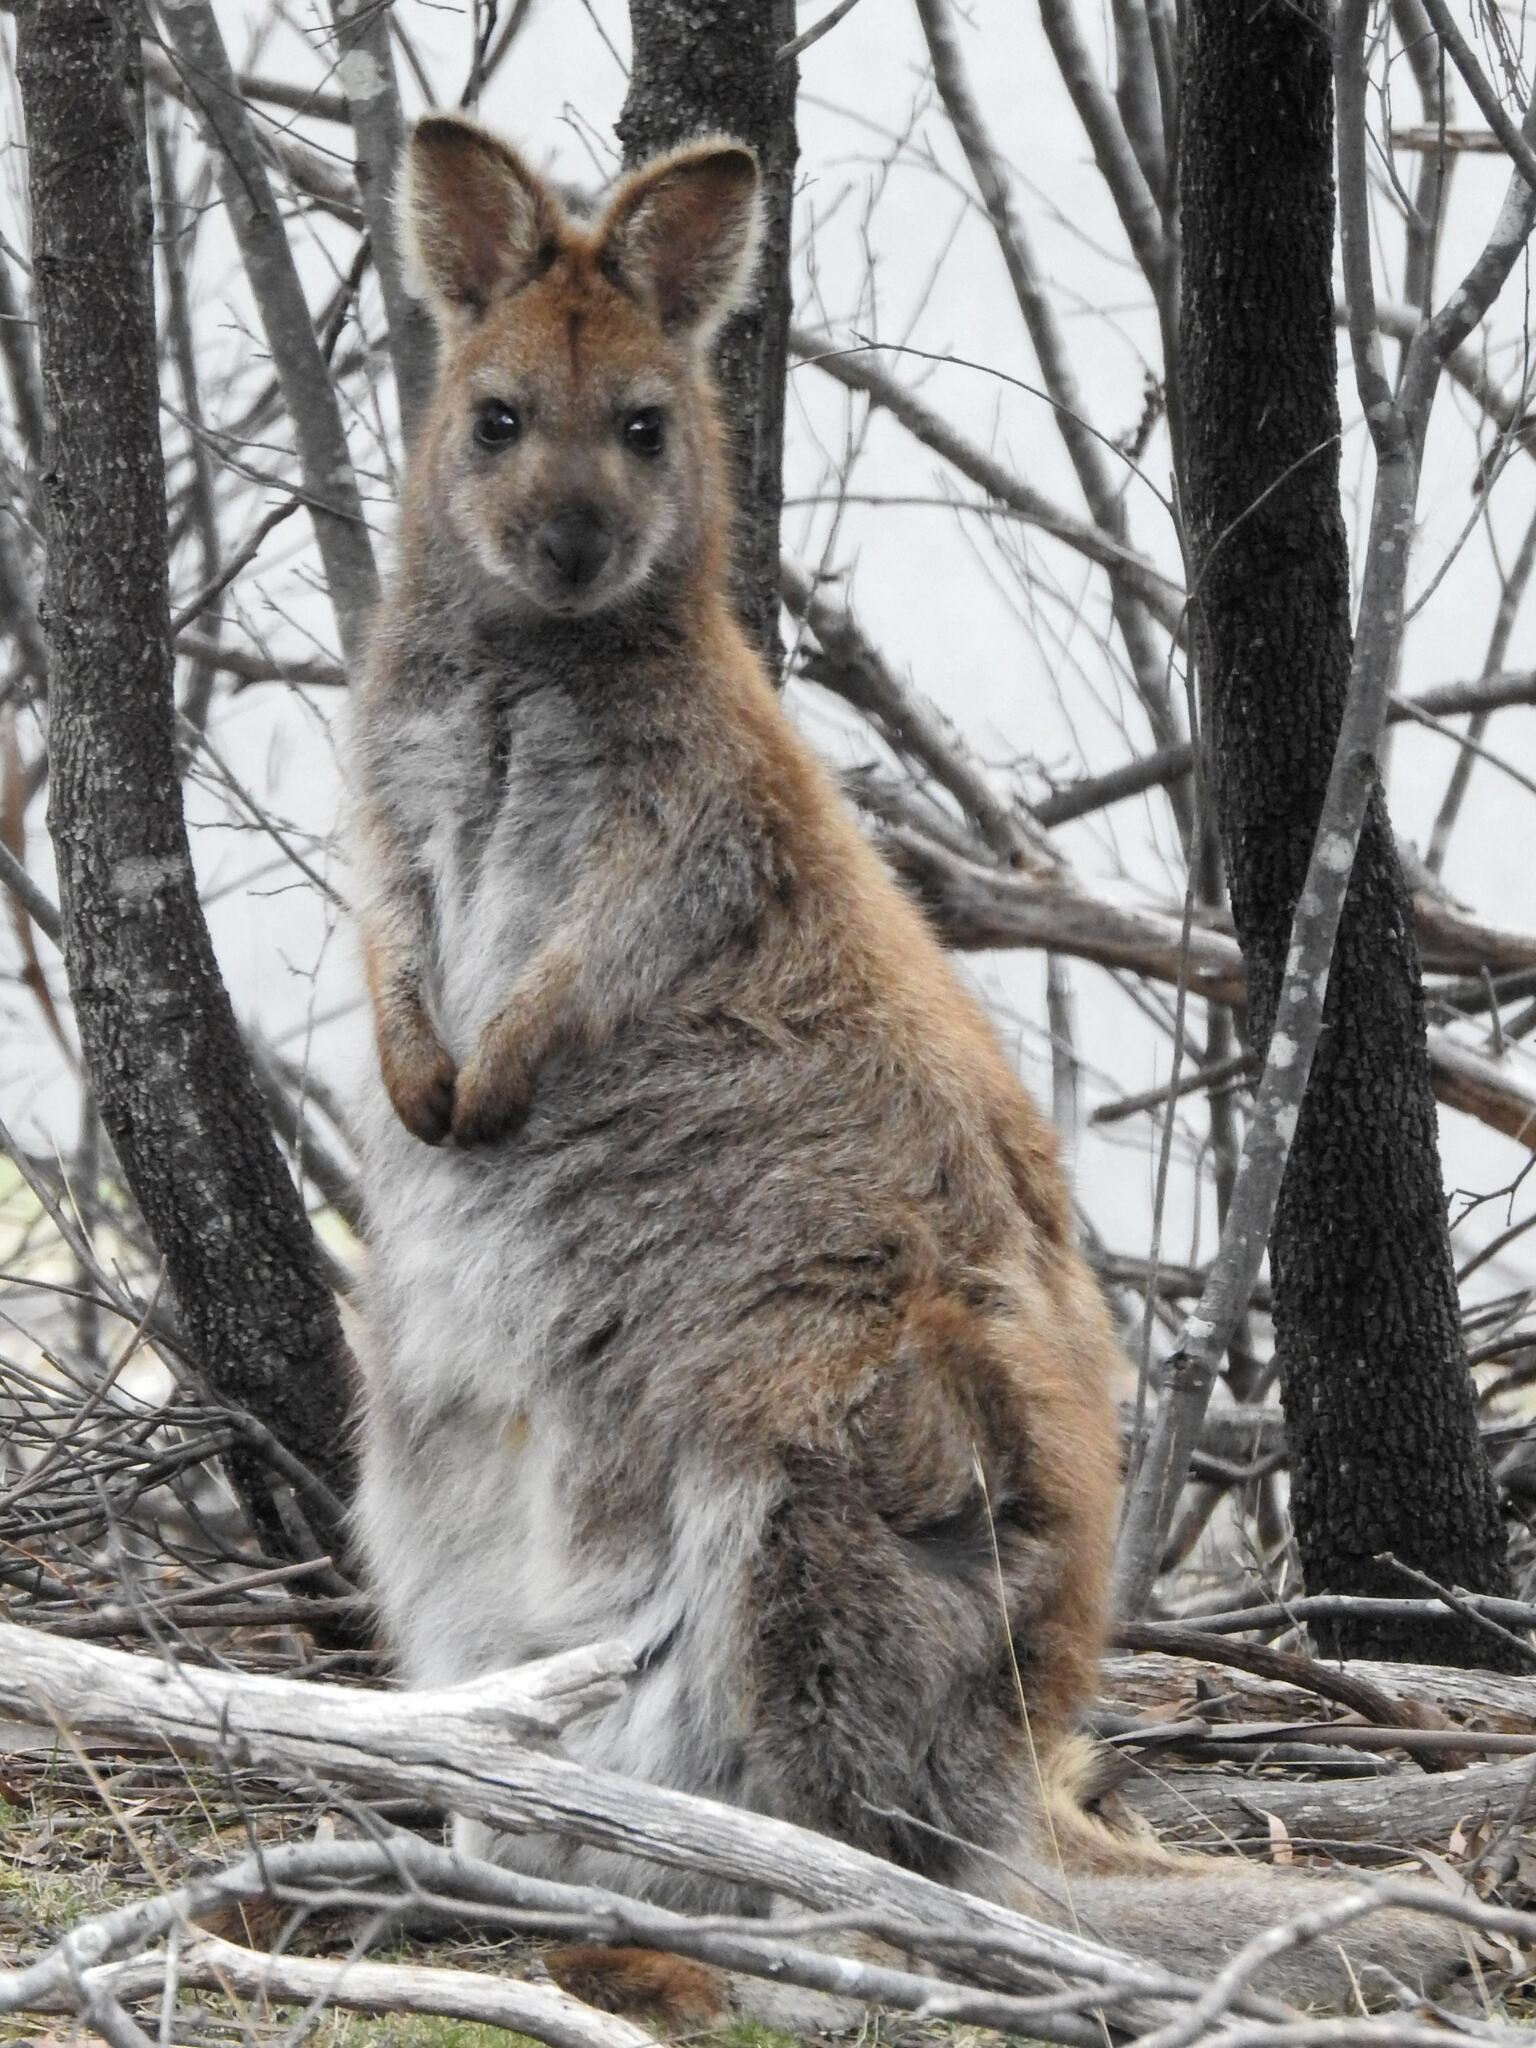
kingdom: Animalia
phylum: Chordata
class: Mammalia
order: Diprotodontia
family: Macropodidae
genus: Notamacropus
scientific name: Notamacropus rufogriseus
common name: Red-necked wallaby
